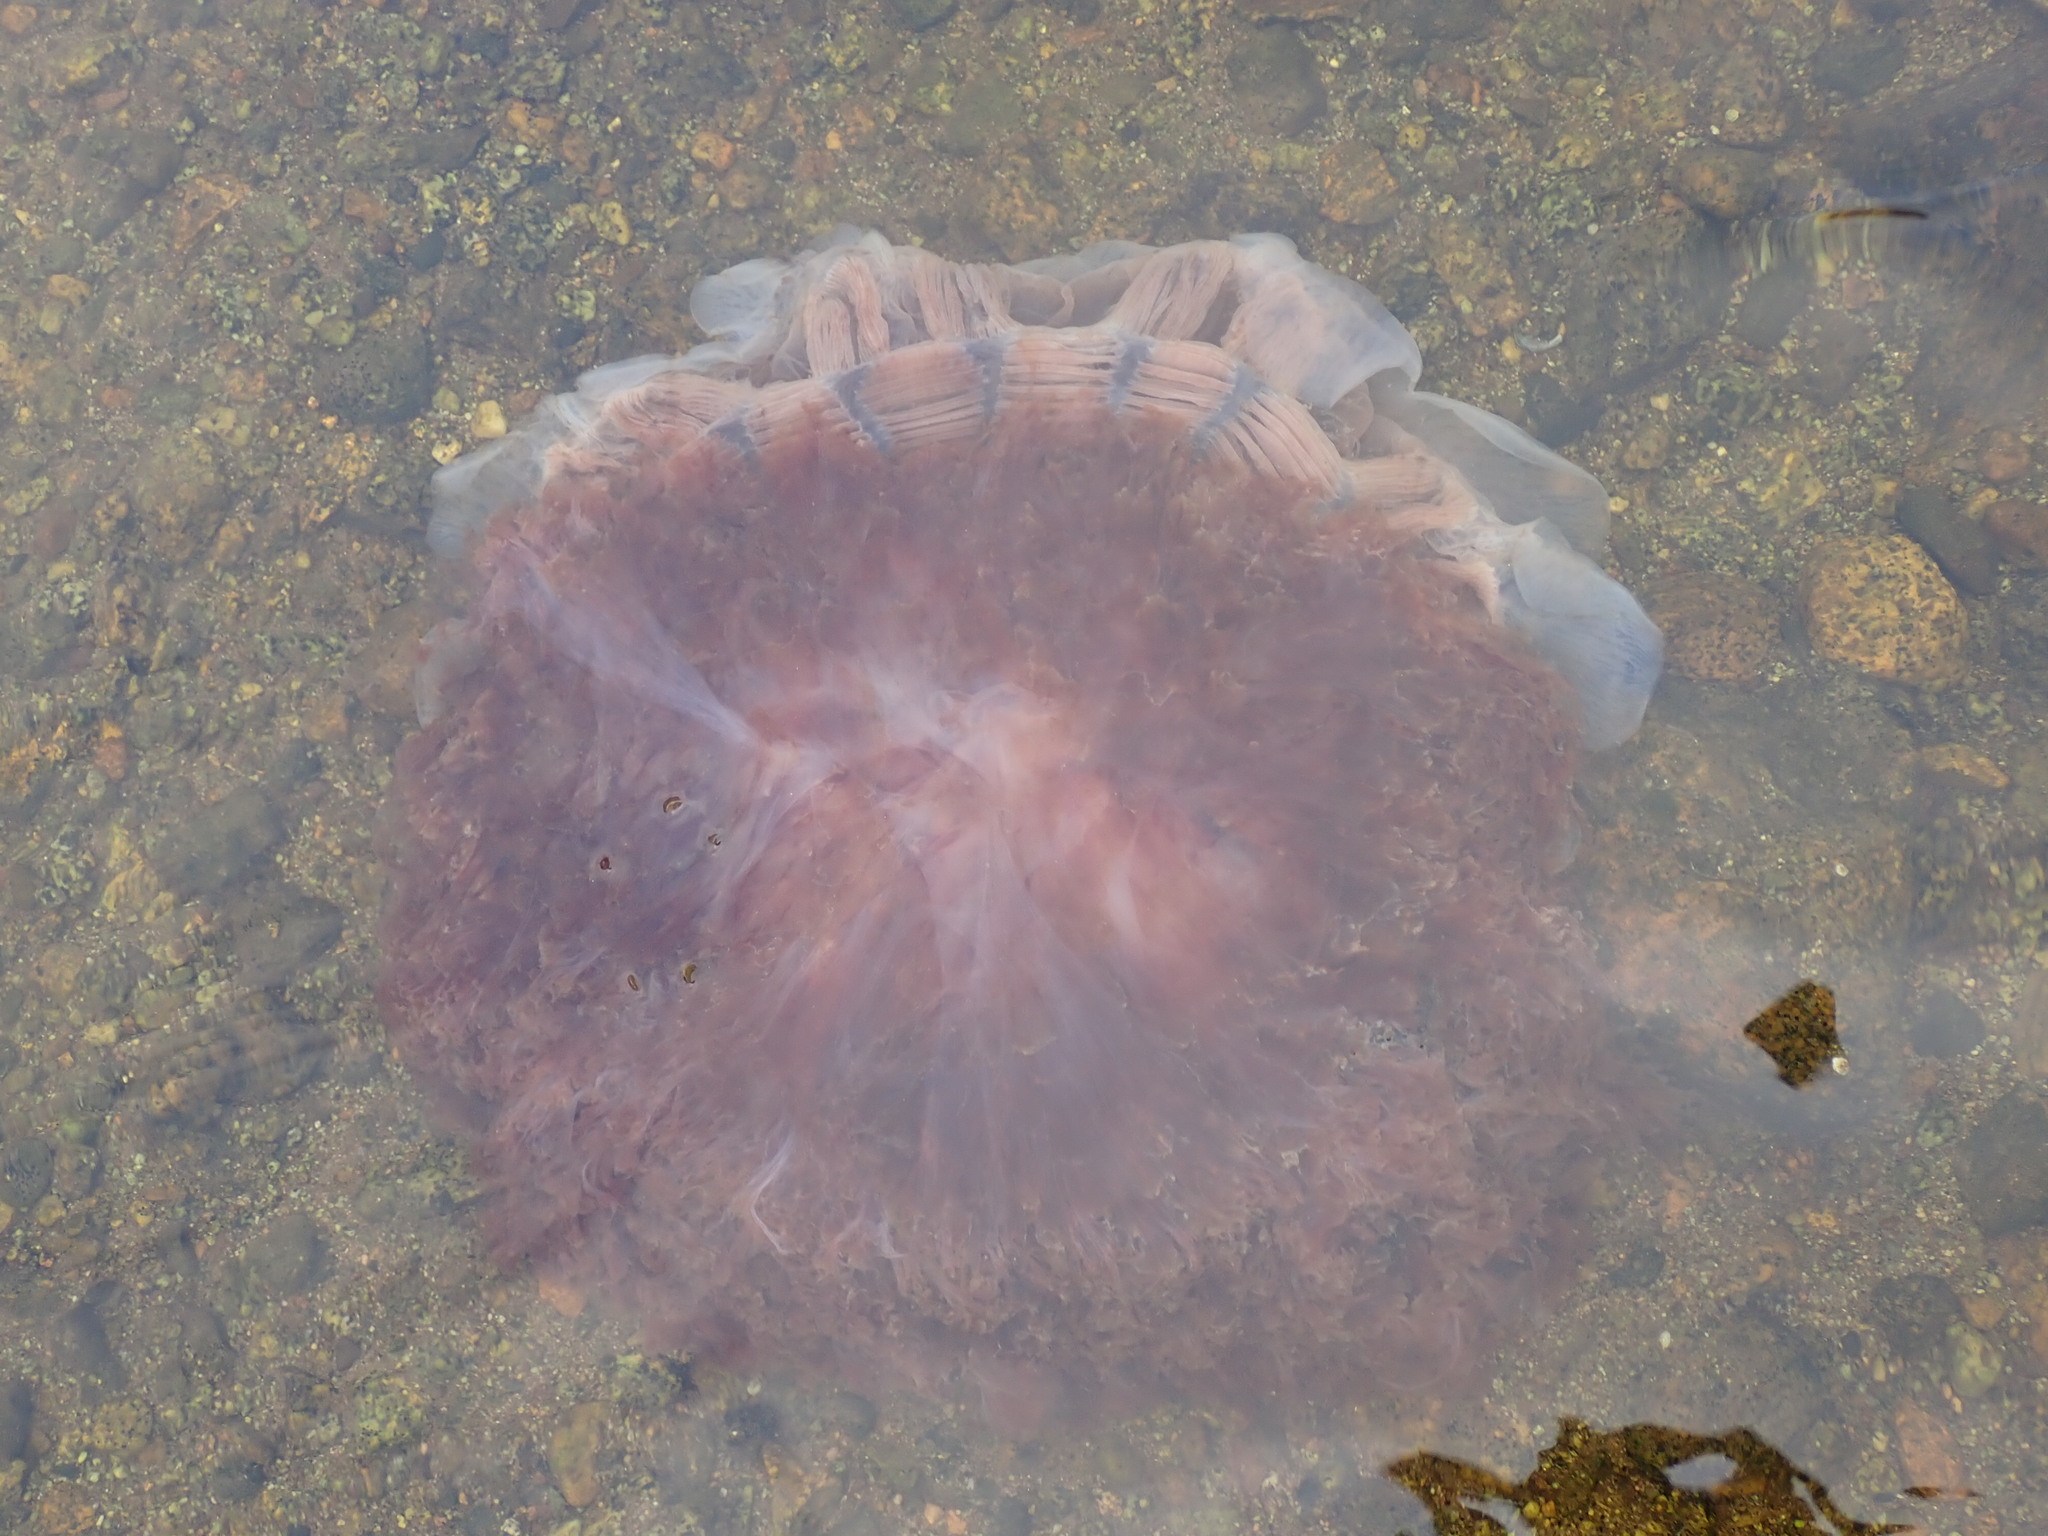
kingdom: Animalia
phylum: Cnidaria
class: Scyphozoa
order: Semaeostomeae
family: Cyaneidae
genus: Cyanea
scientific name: Cyanea ferruginea
